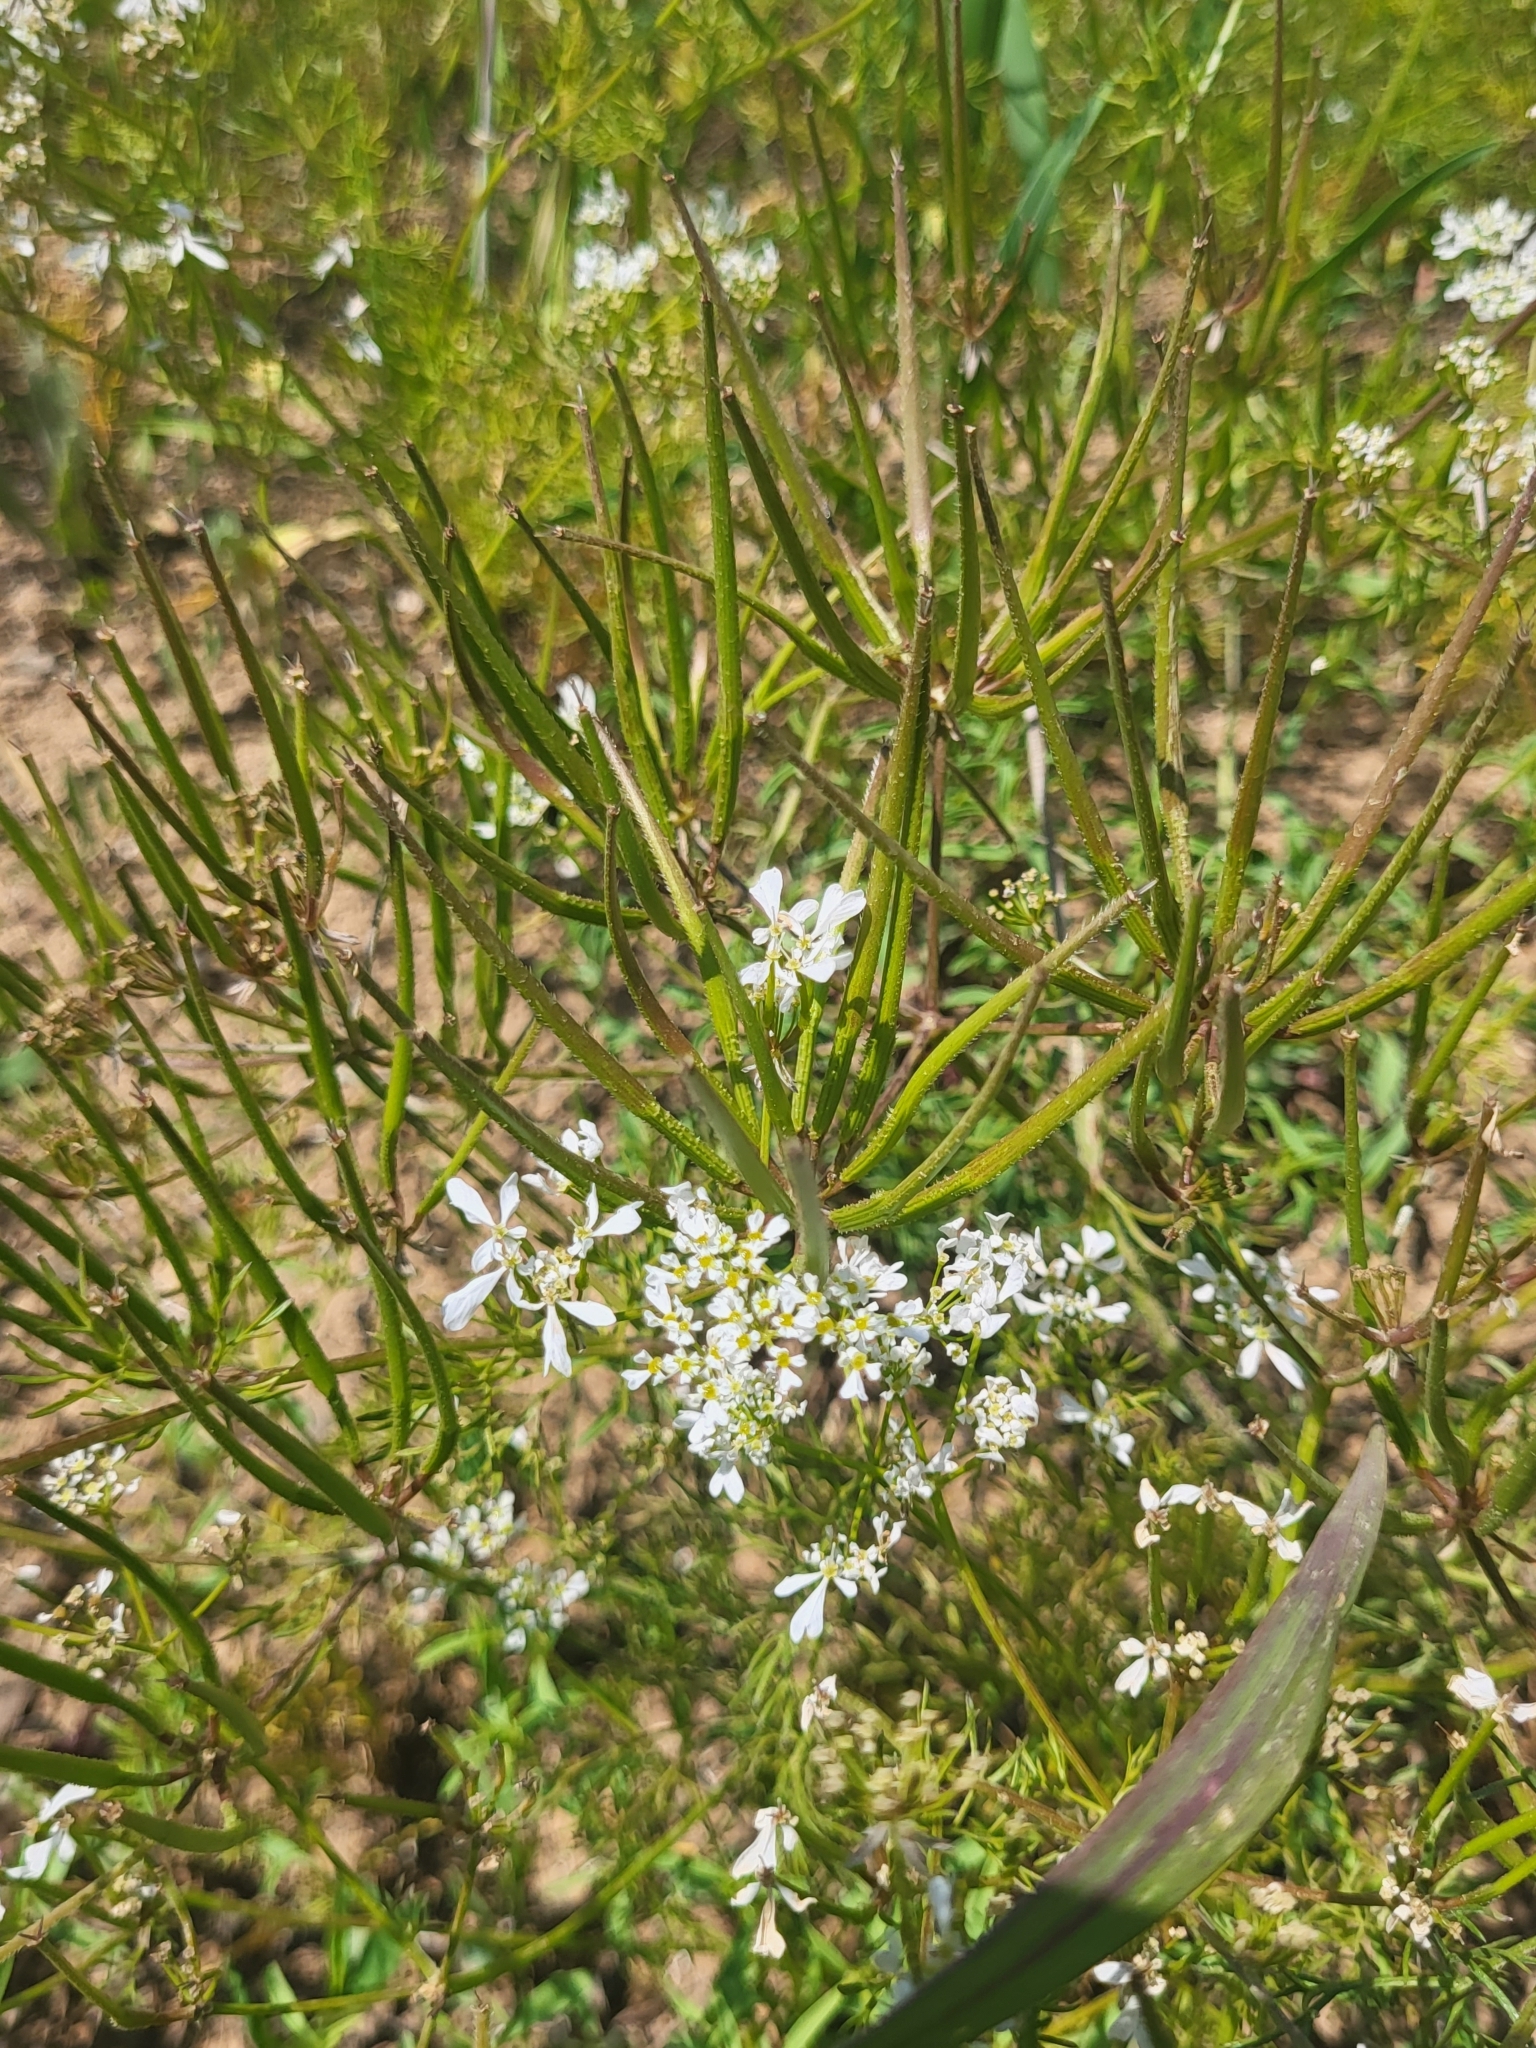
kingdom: Plantae
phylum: Tracheophyta
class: Magnoliopsida
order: Apiales
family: Apiaceae
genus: Coriandrum
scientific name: Coriandrum sativum
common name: Coriander
